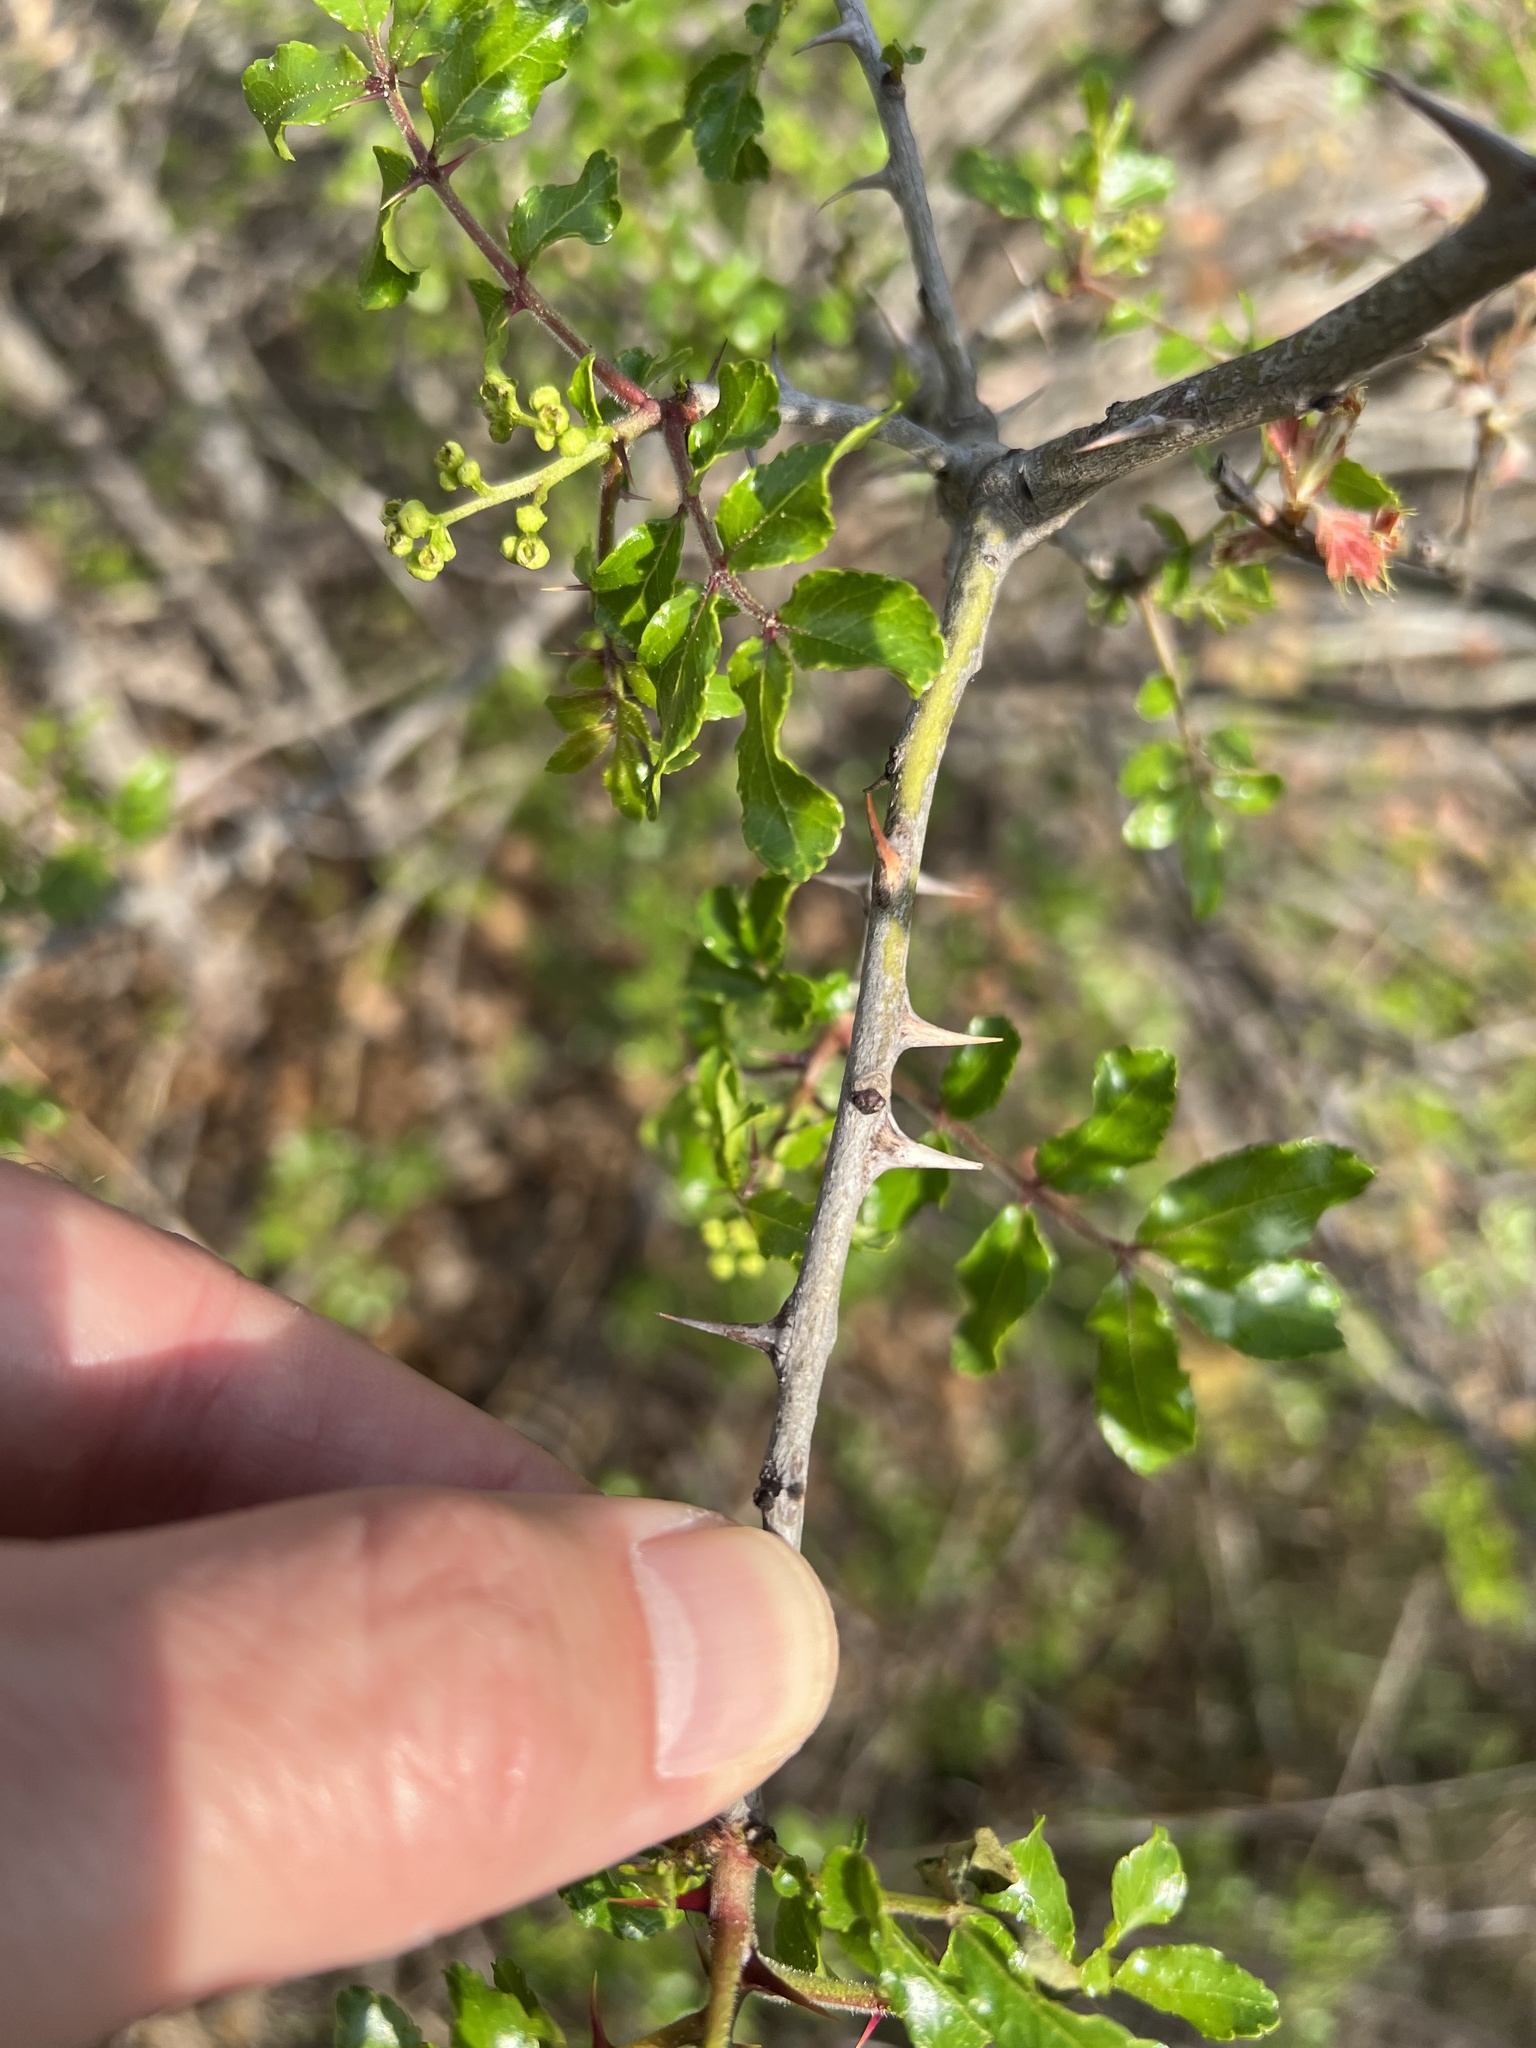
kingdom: Plantae
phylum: Tracheophyta
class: Magnoliopsida
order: Sapindales
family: Rutaceae
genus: Zanthoxylum
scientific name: Zanthoxylum clava-herculis
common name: Hercules'-club
